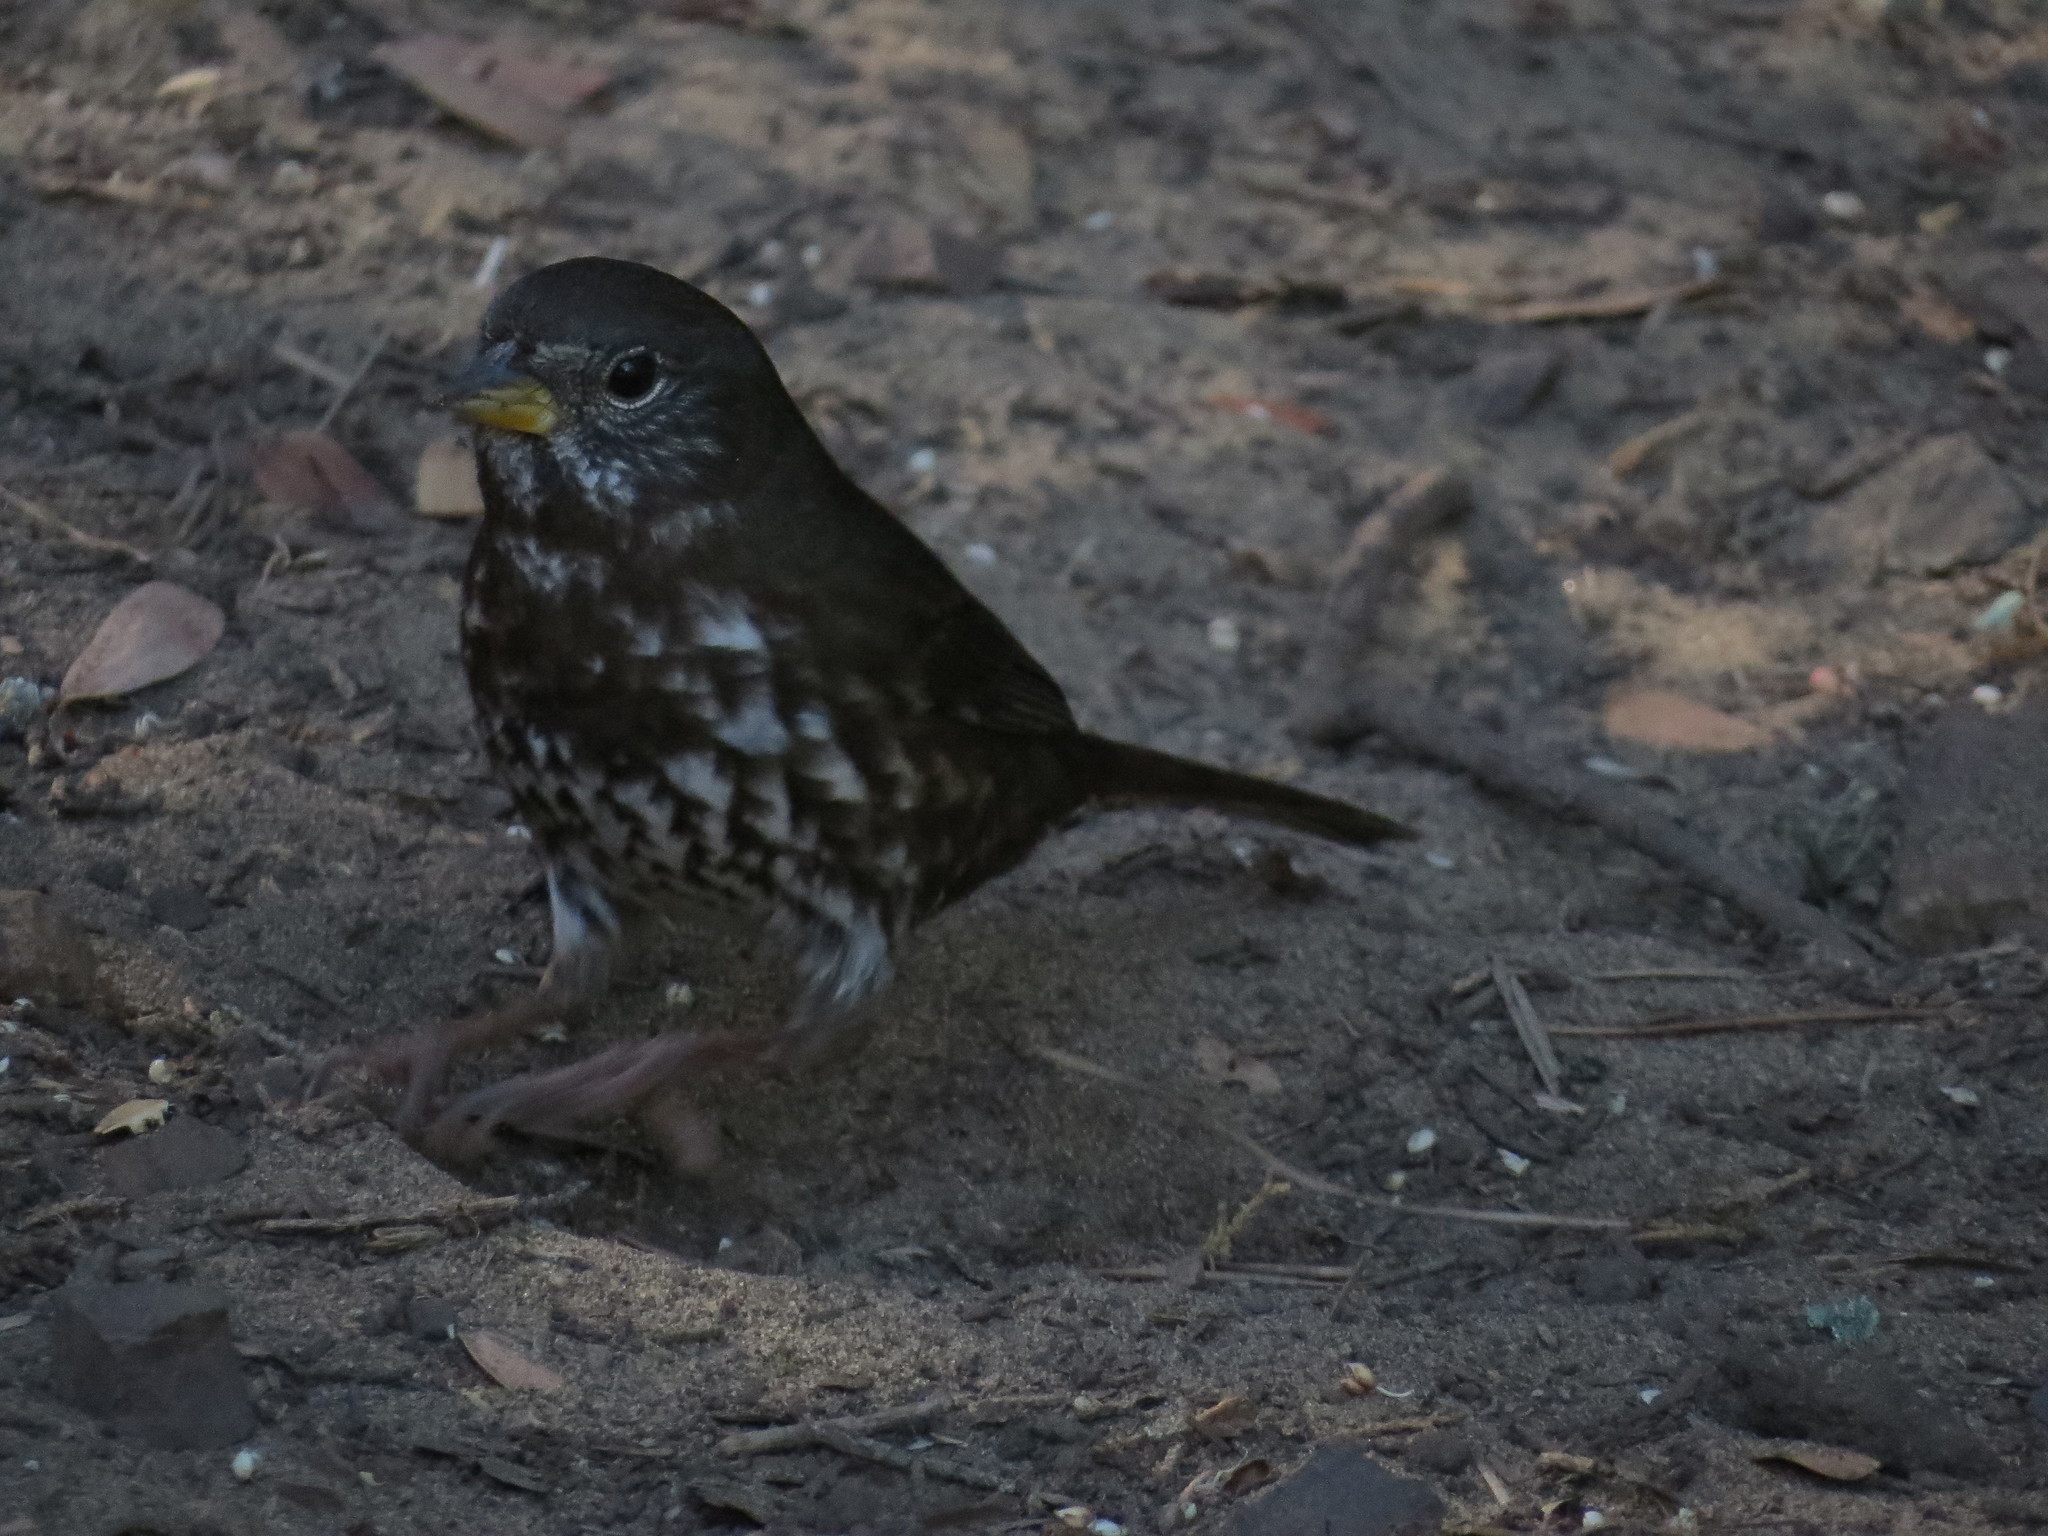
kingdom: Animalia
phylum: Chordata
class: Aves
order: Passeriformes
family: Passerellidae
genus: Passerella
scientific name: Passerella iliaca
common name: Fox sparrow
